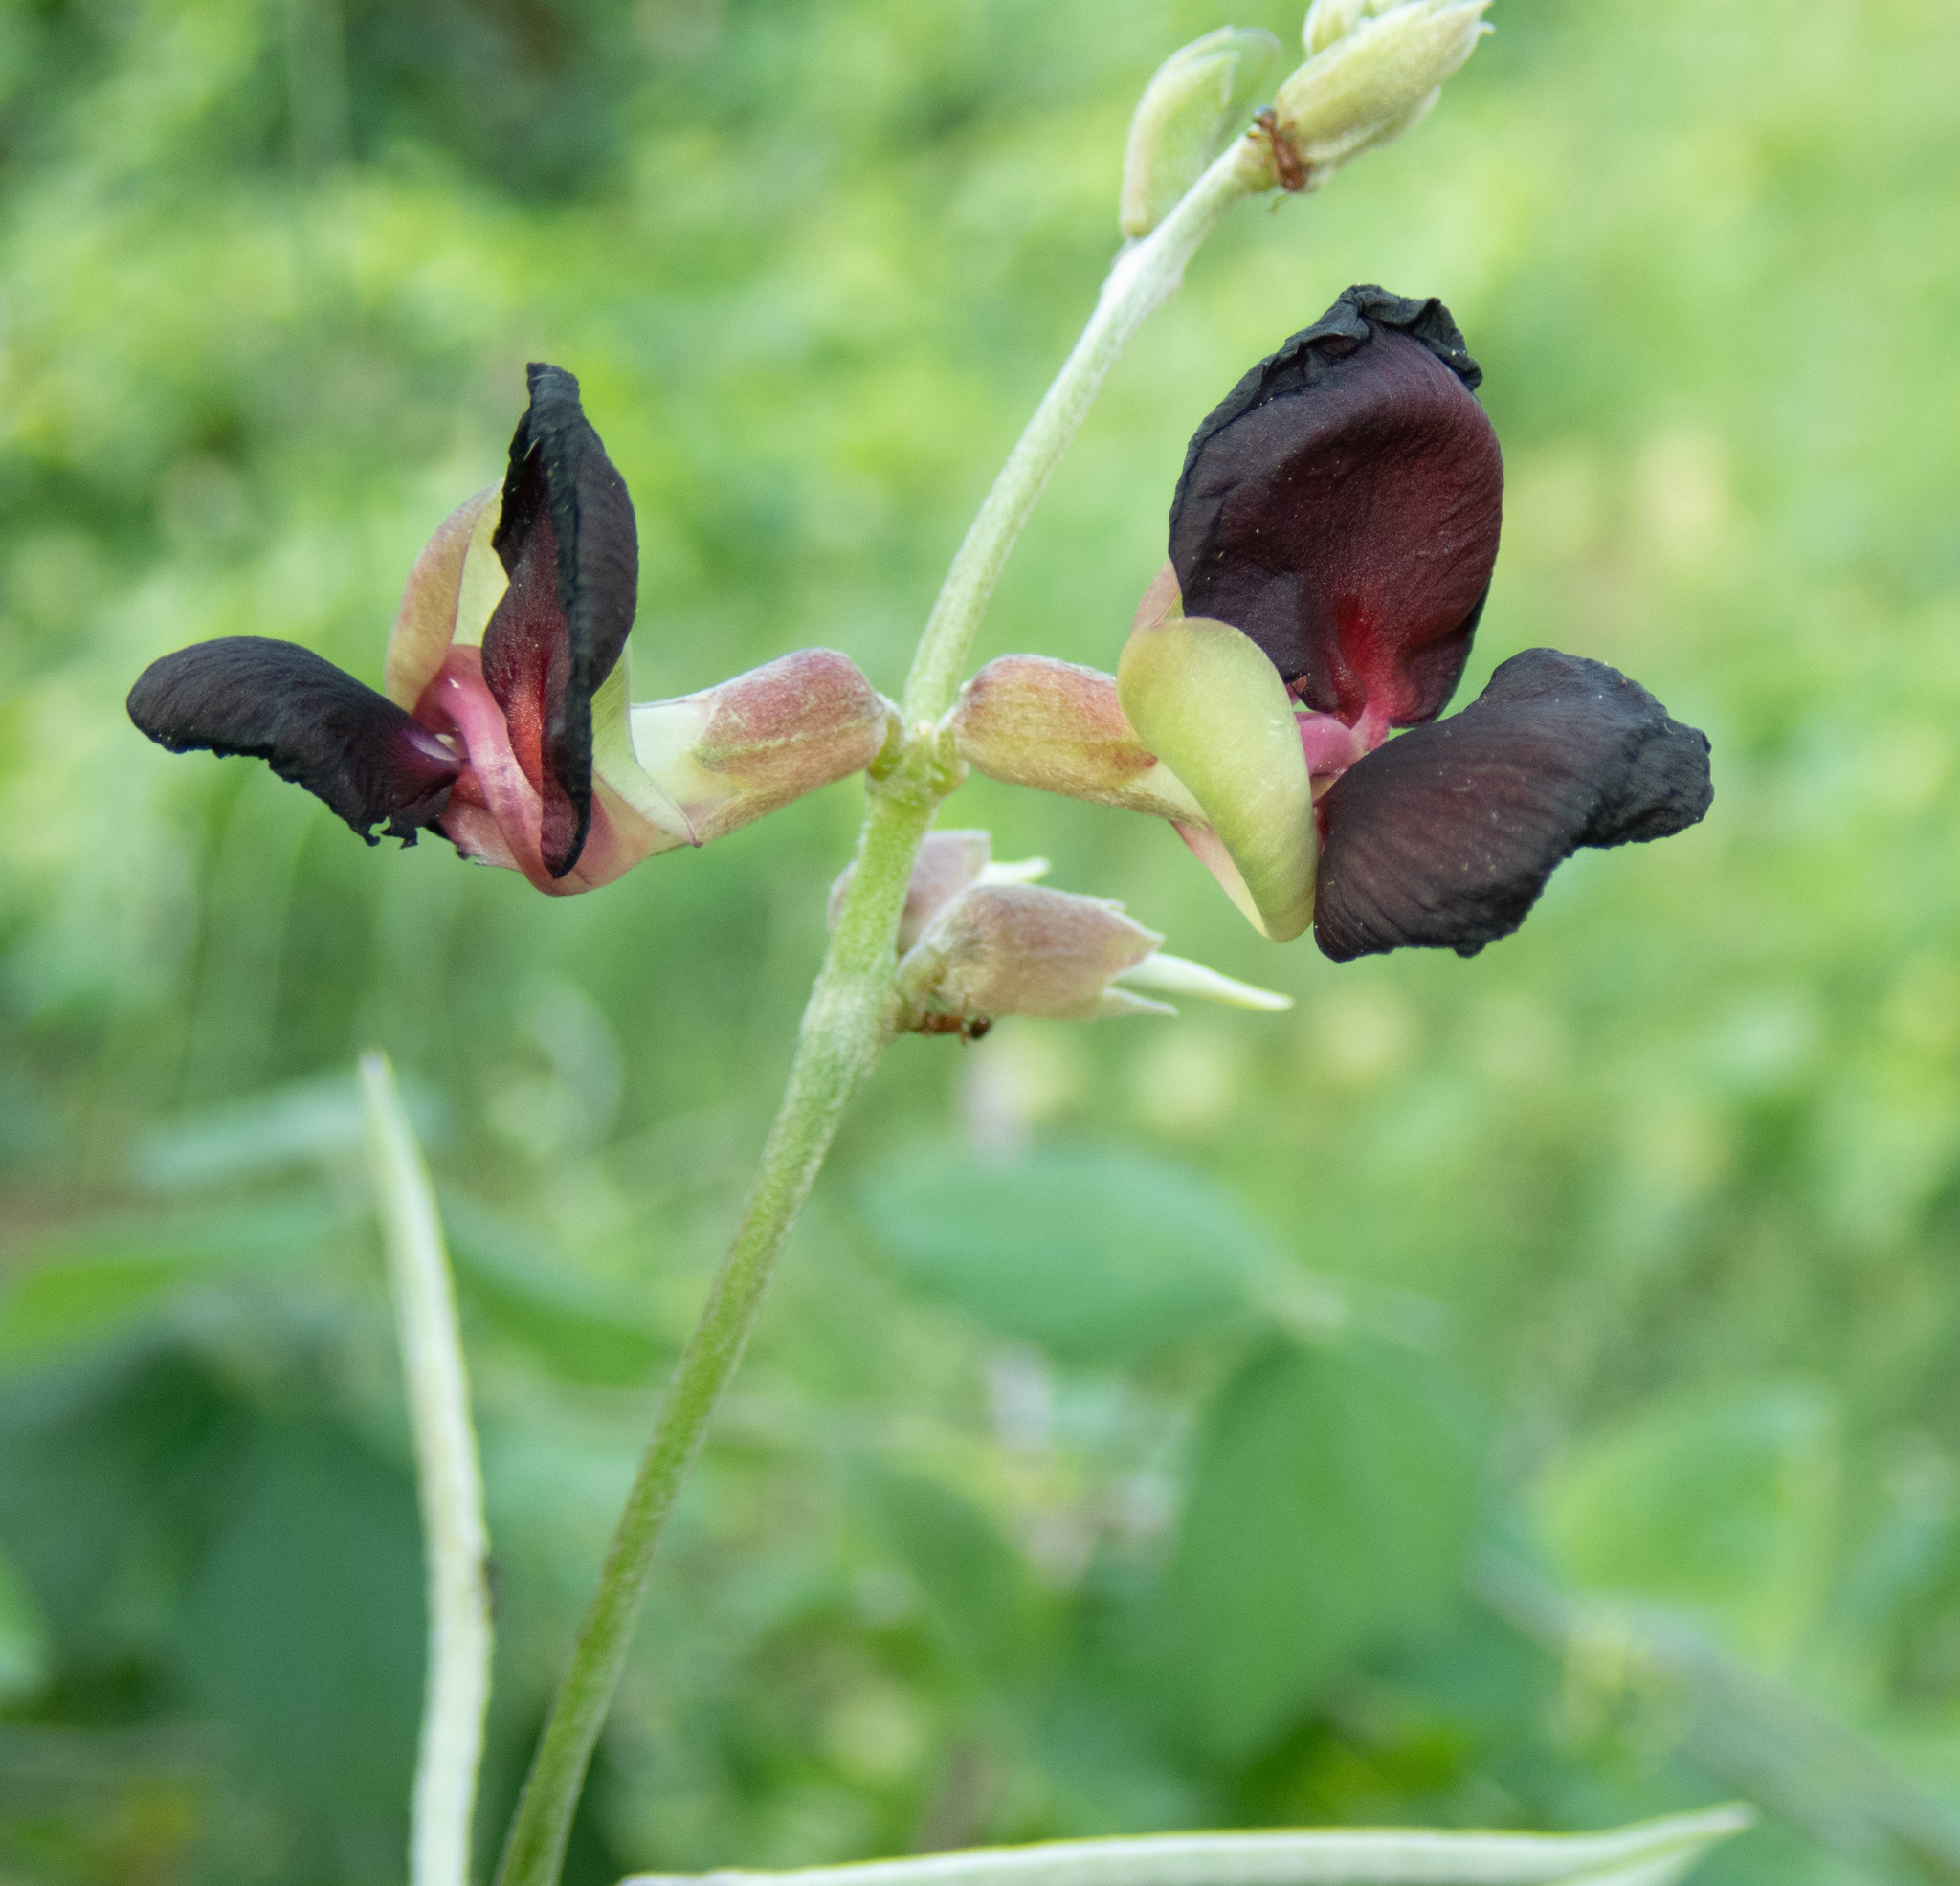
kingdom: Plantae
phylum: Tracheophyta
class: Magnoliopsida
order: Fabales
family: Fabaceae
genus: Macroptilium
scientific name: Macroptilium atropurpureum
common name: Purple bushbean
